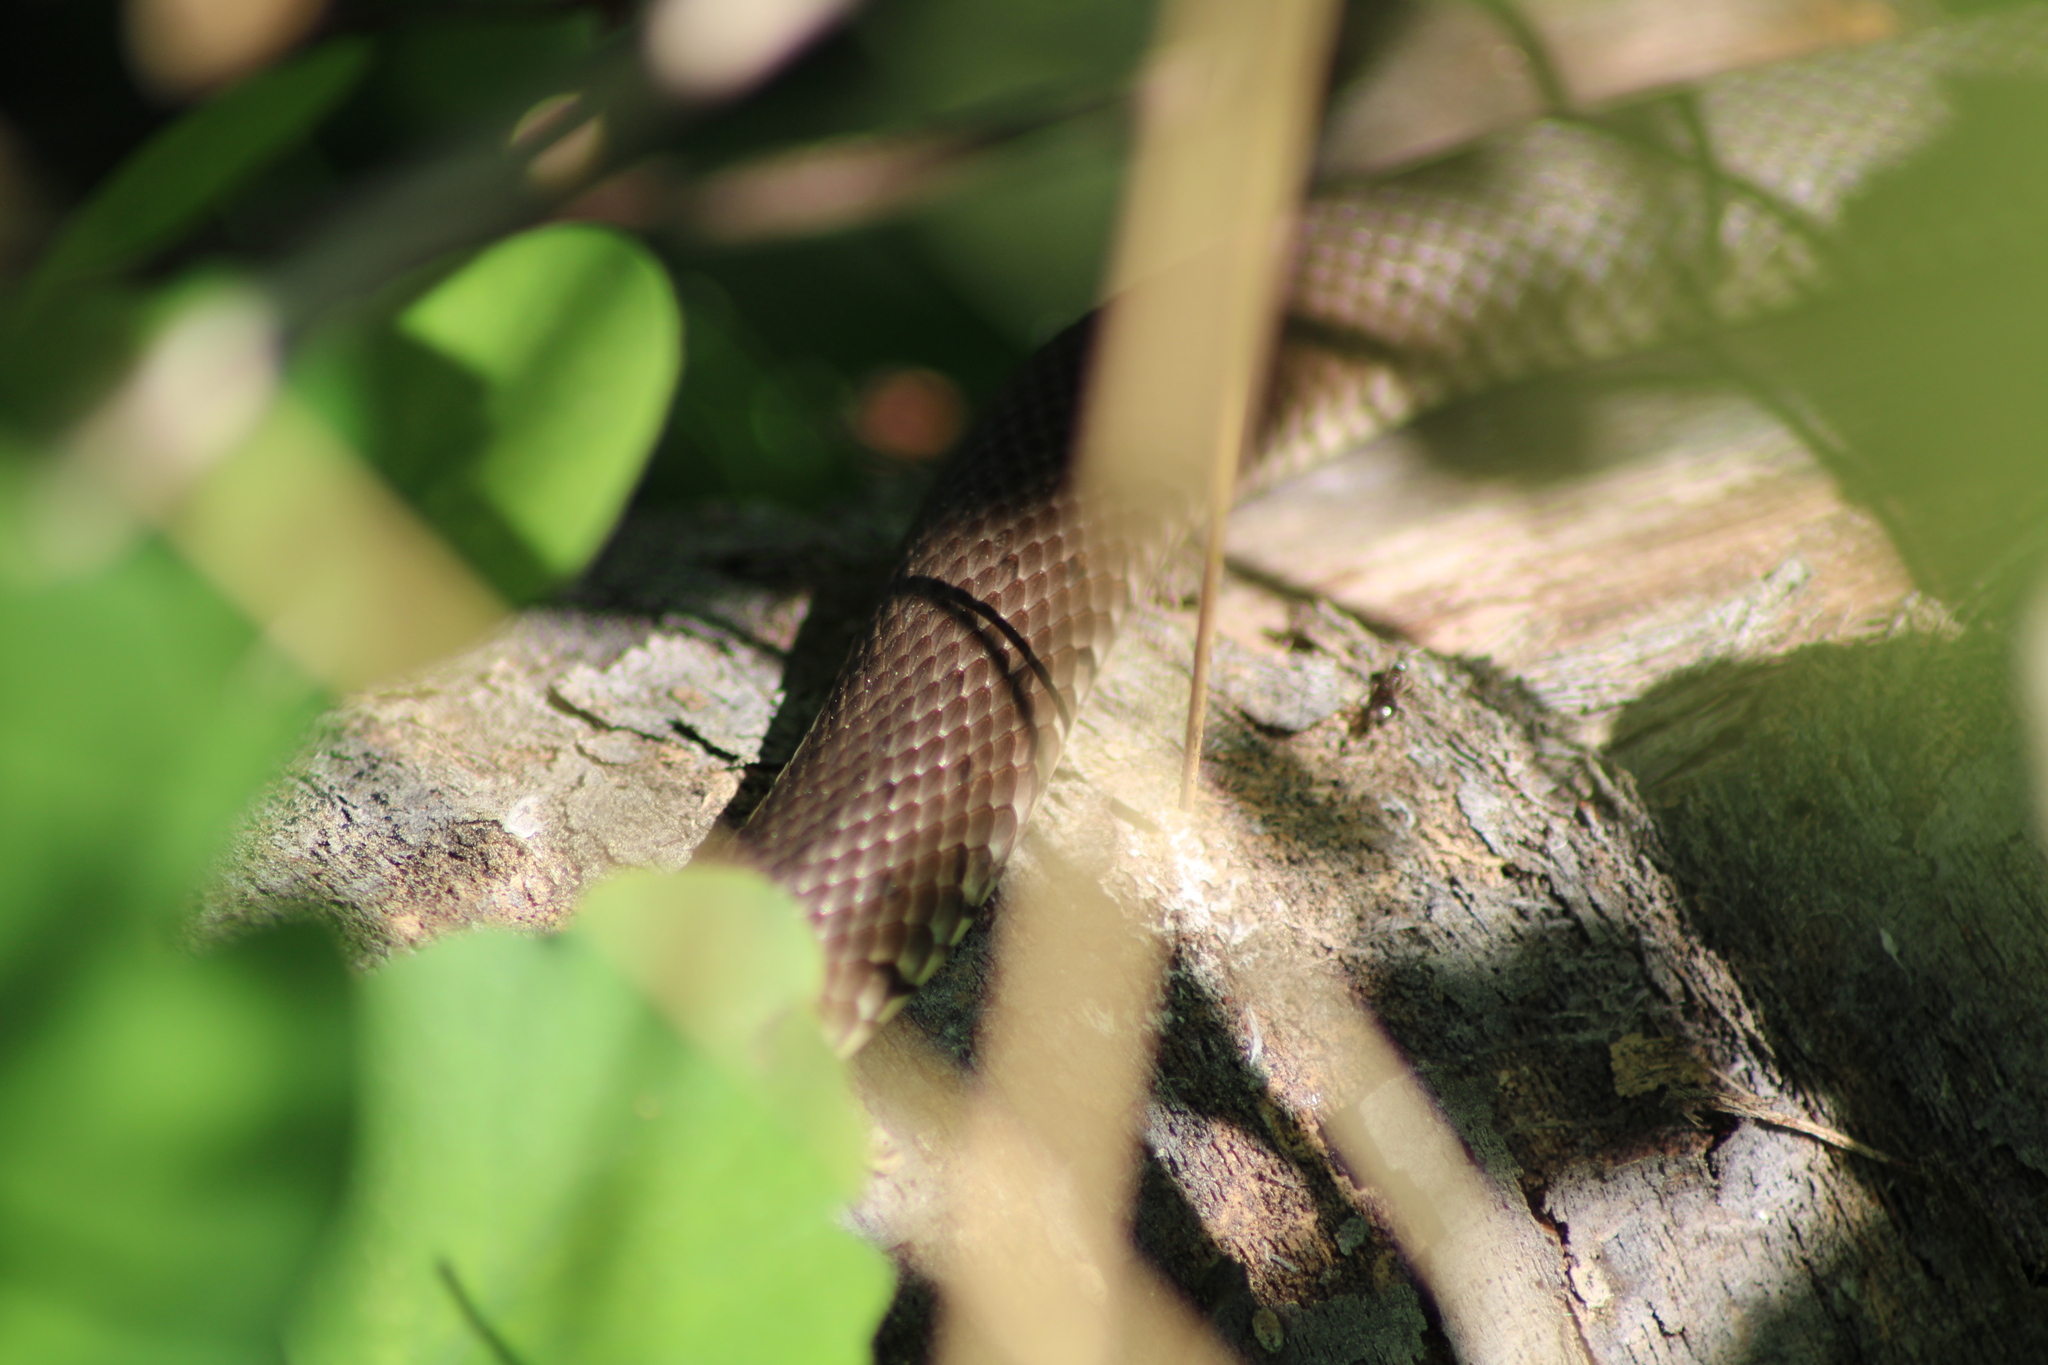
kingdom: Animalia
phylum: Chordata
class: Squamata
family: Colubridae
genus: Natrix
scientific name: Natrix natrix
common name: Grass snake
